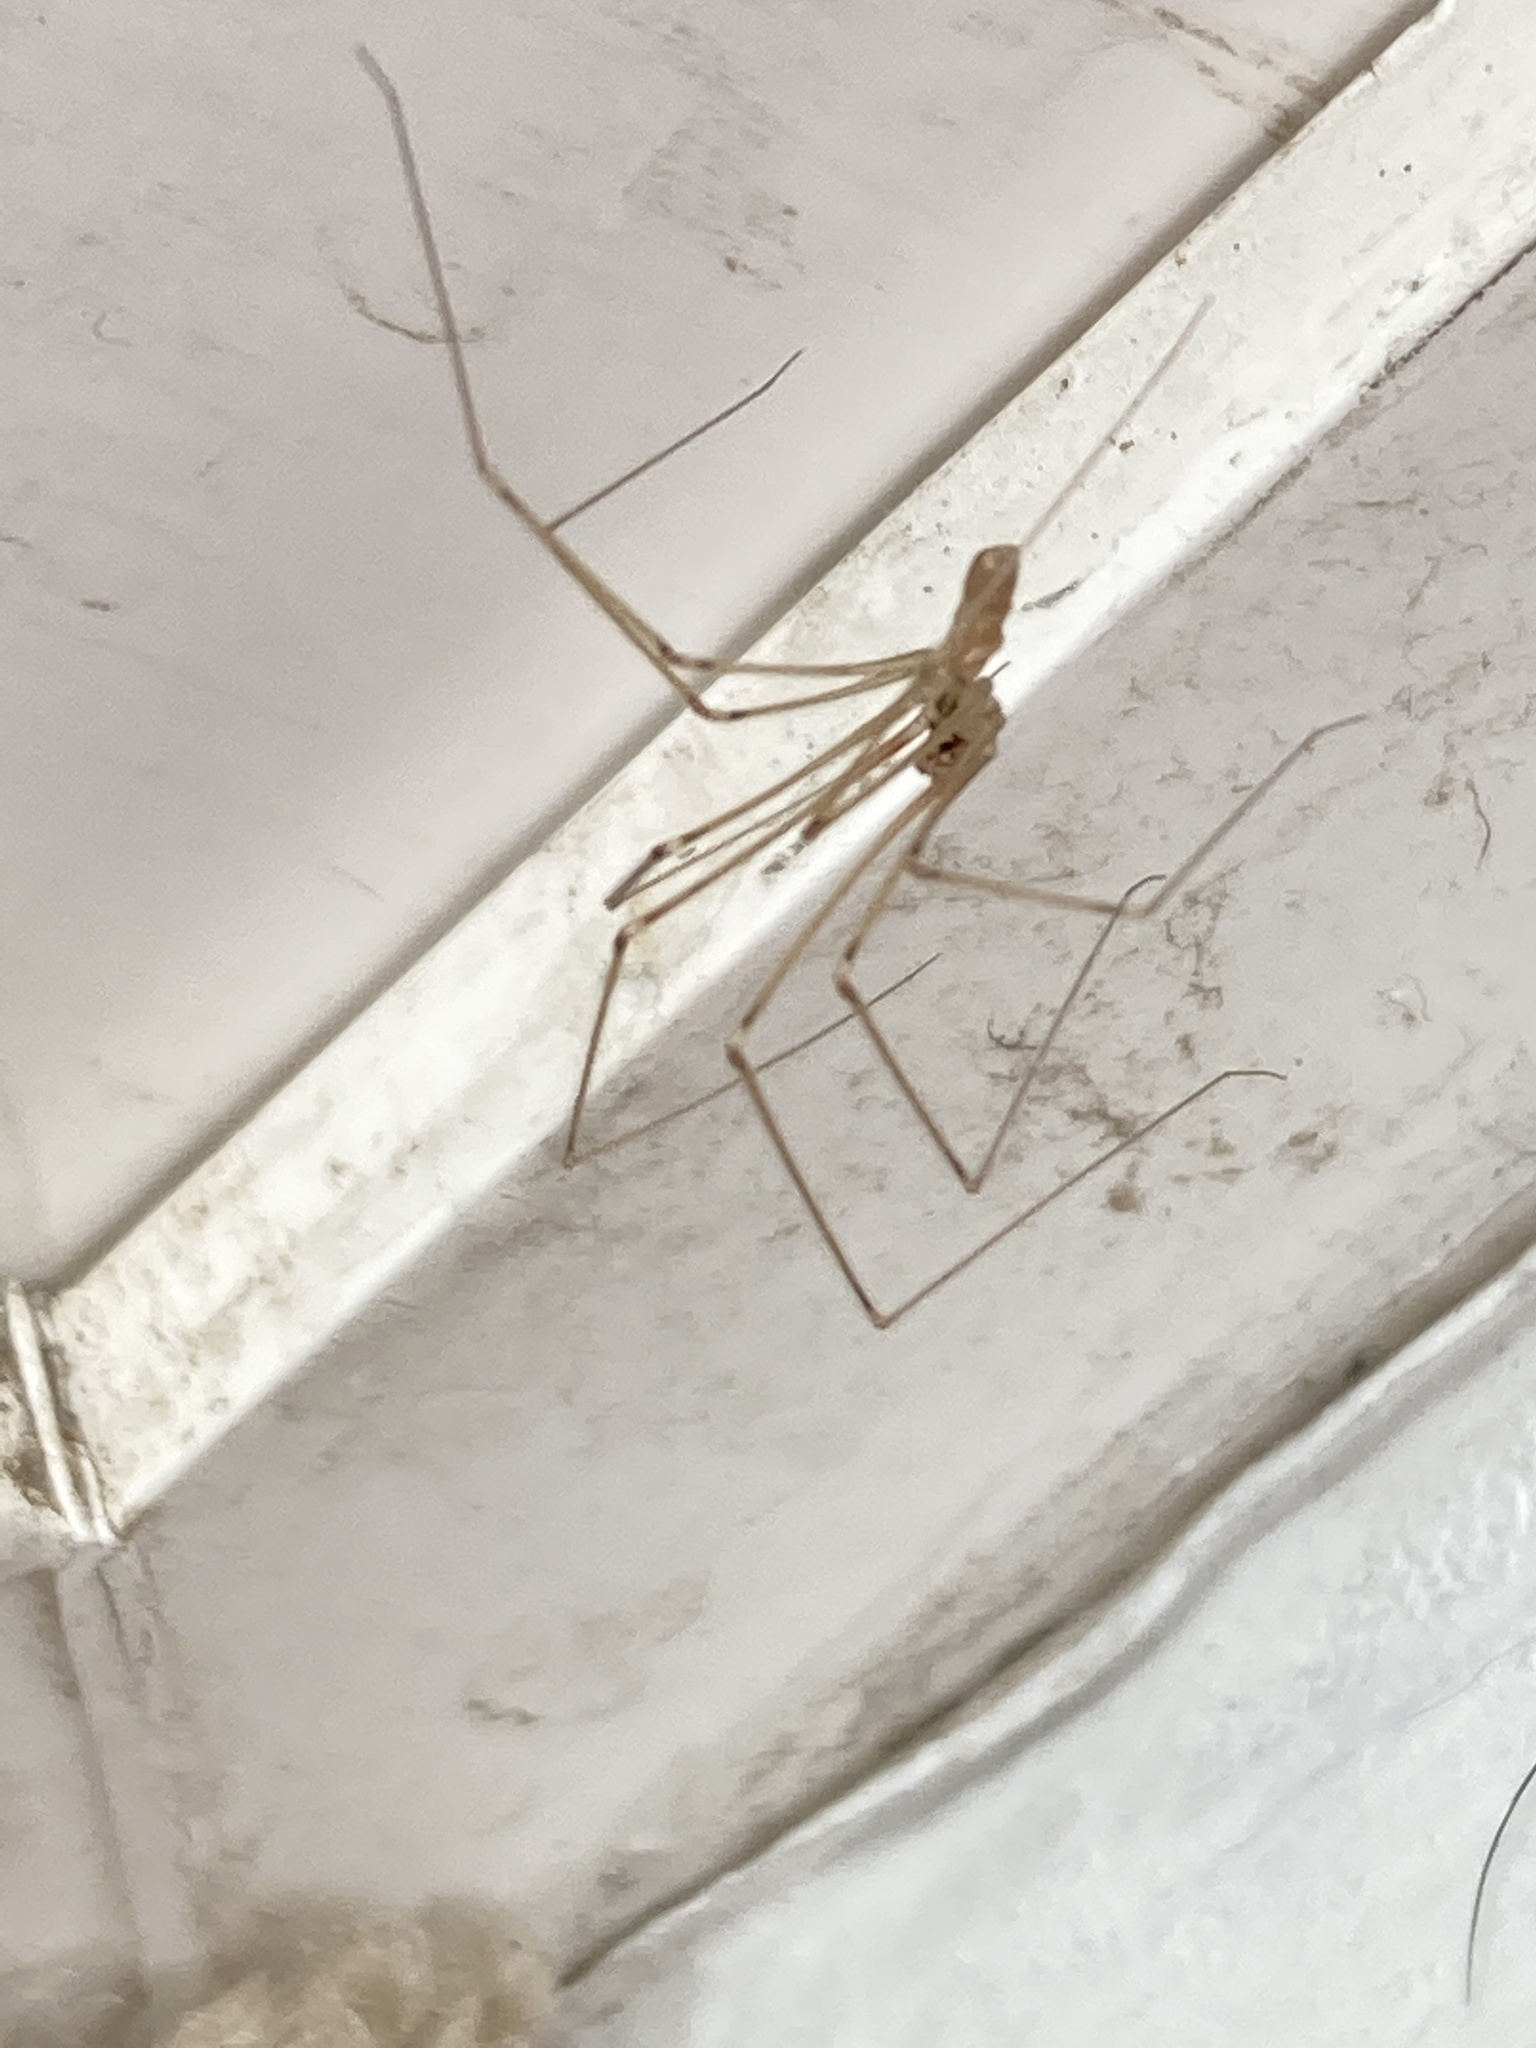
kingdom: Animalia
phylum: Arthropoda
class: Arachnida
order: Araneae
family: Pholcidae
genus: Pholcus
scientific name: Pholcus phalangioides
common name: Longbodied cellar spider
